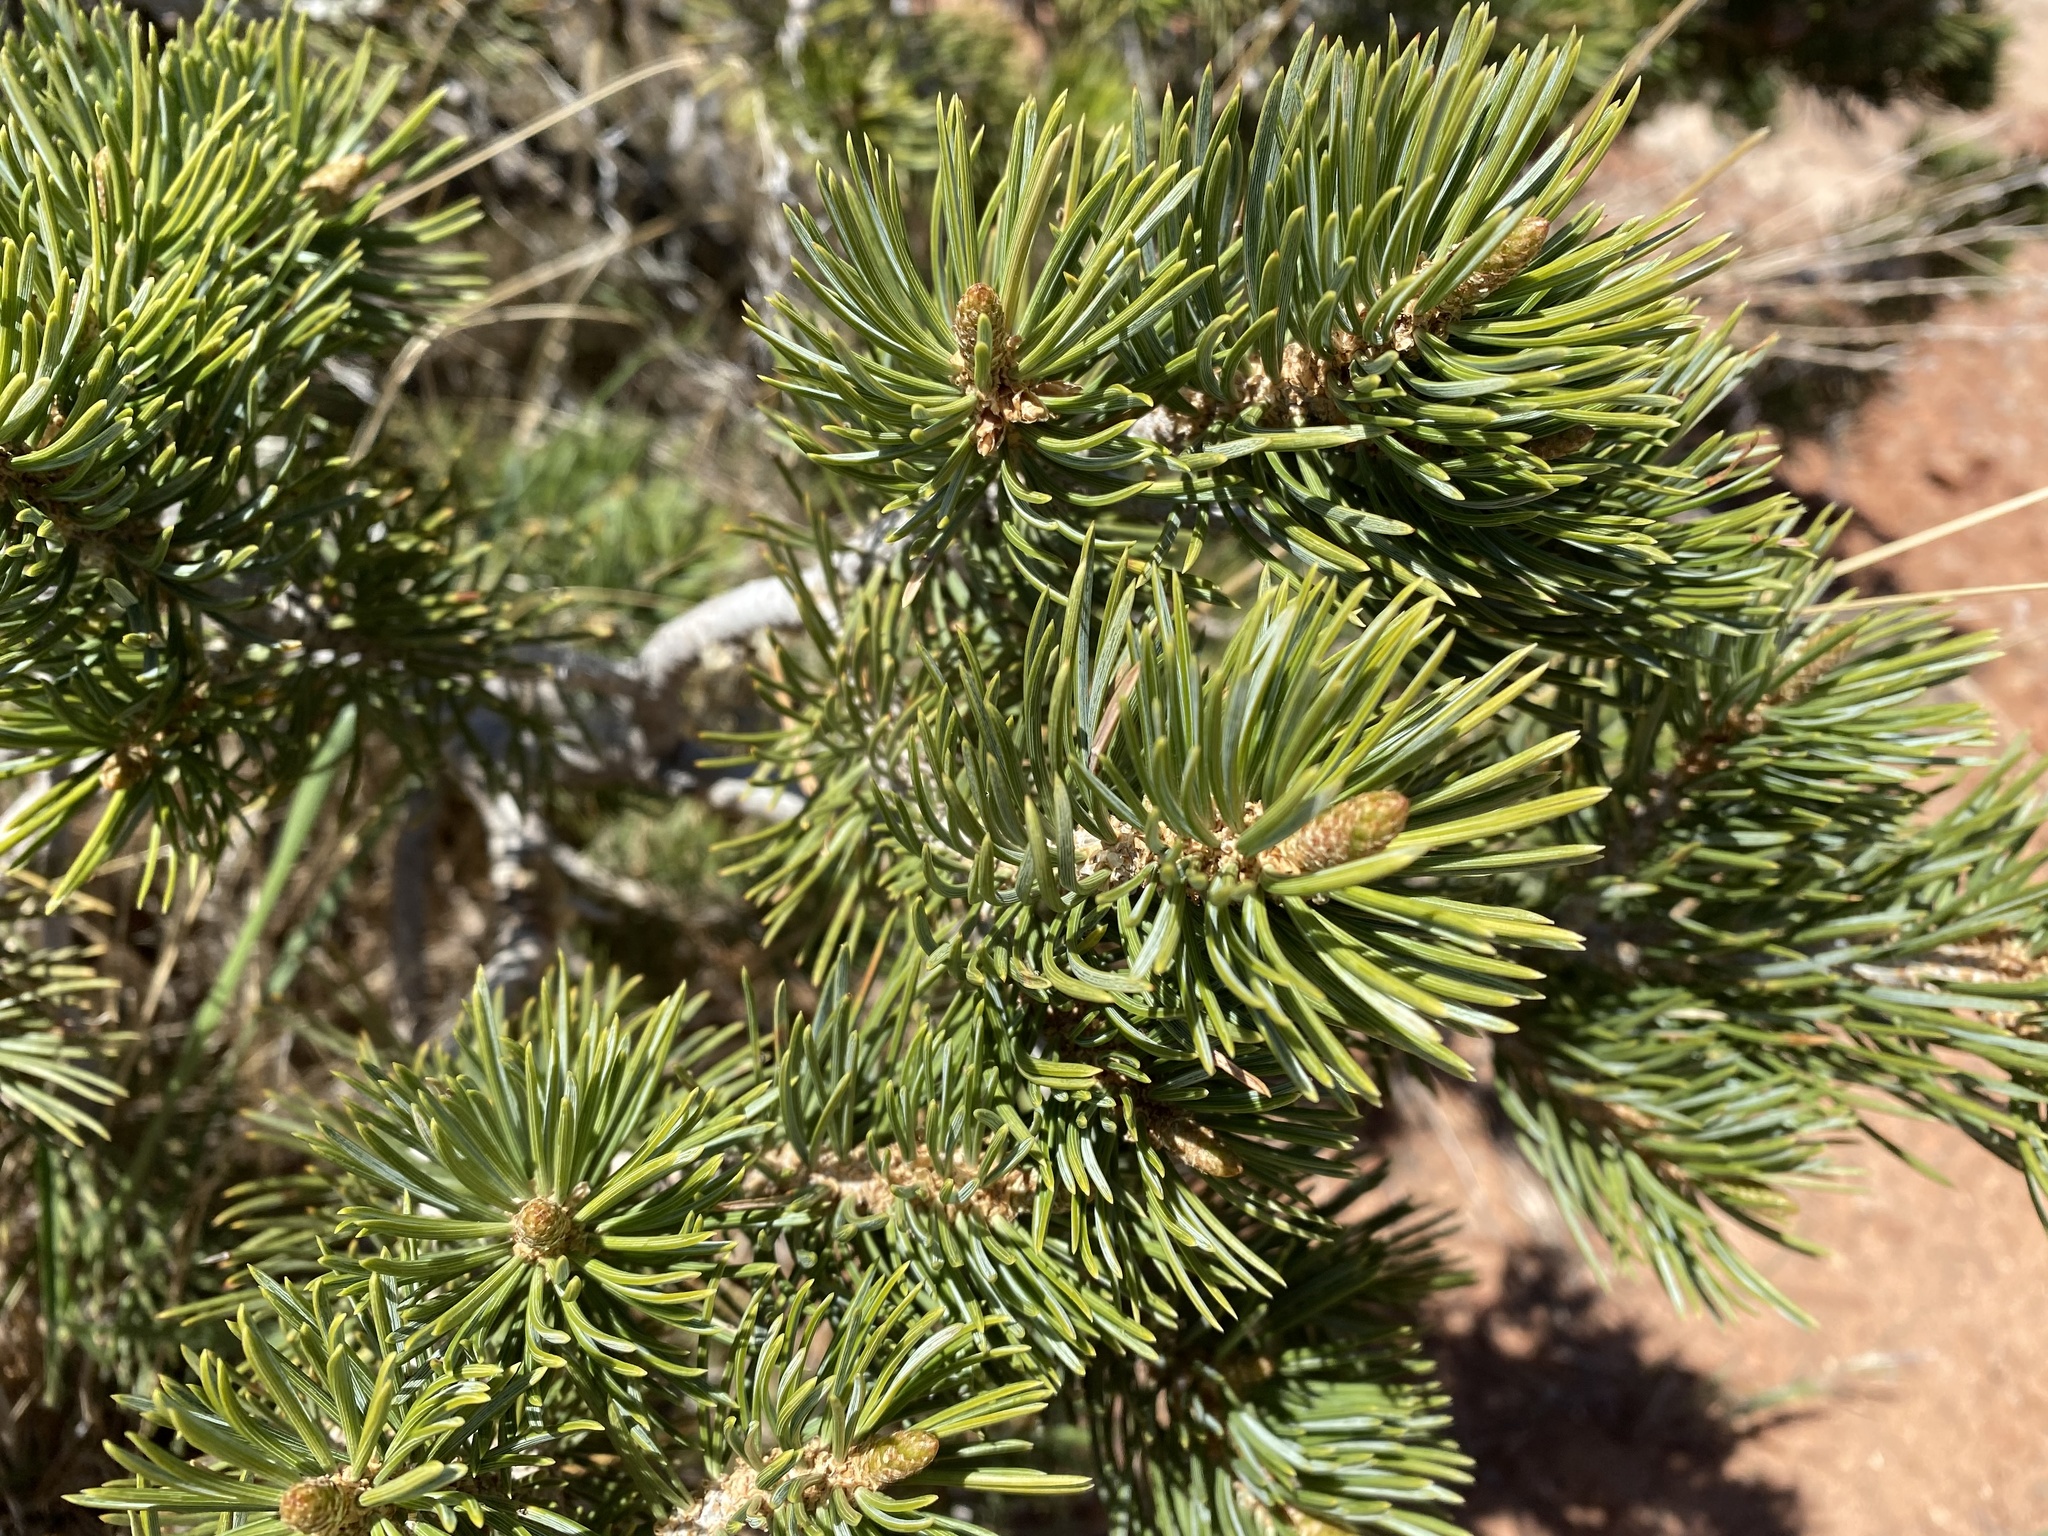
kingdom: Plantae
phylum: Tracheophyta
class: Pinopsida
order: Pinales
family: Pinaceae
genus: Pinus
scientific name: Pinus edulis
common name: Colorado pinyon
